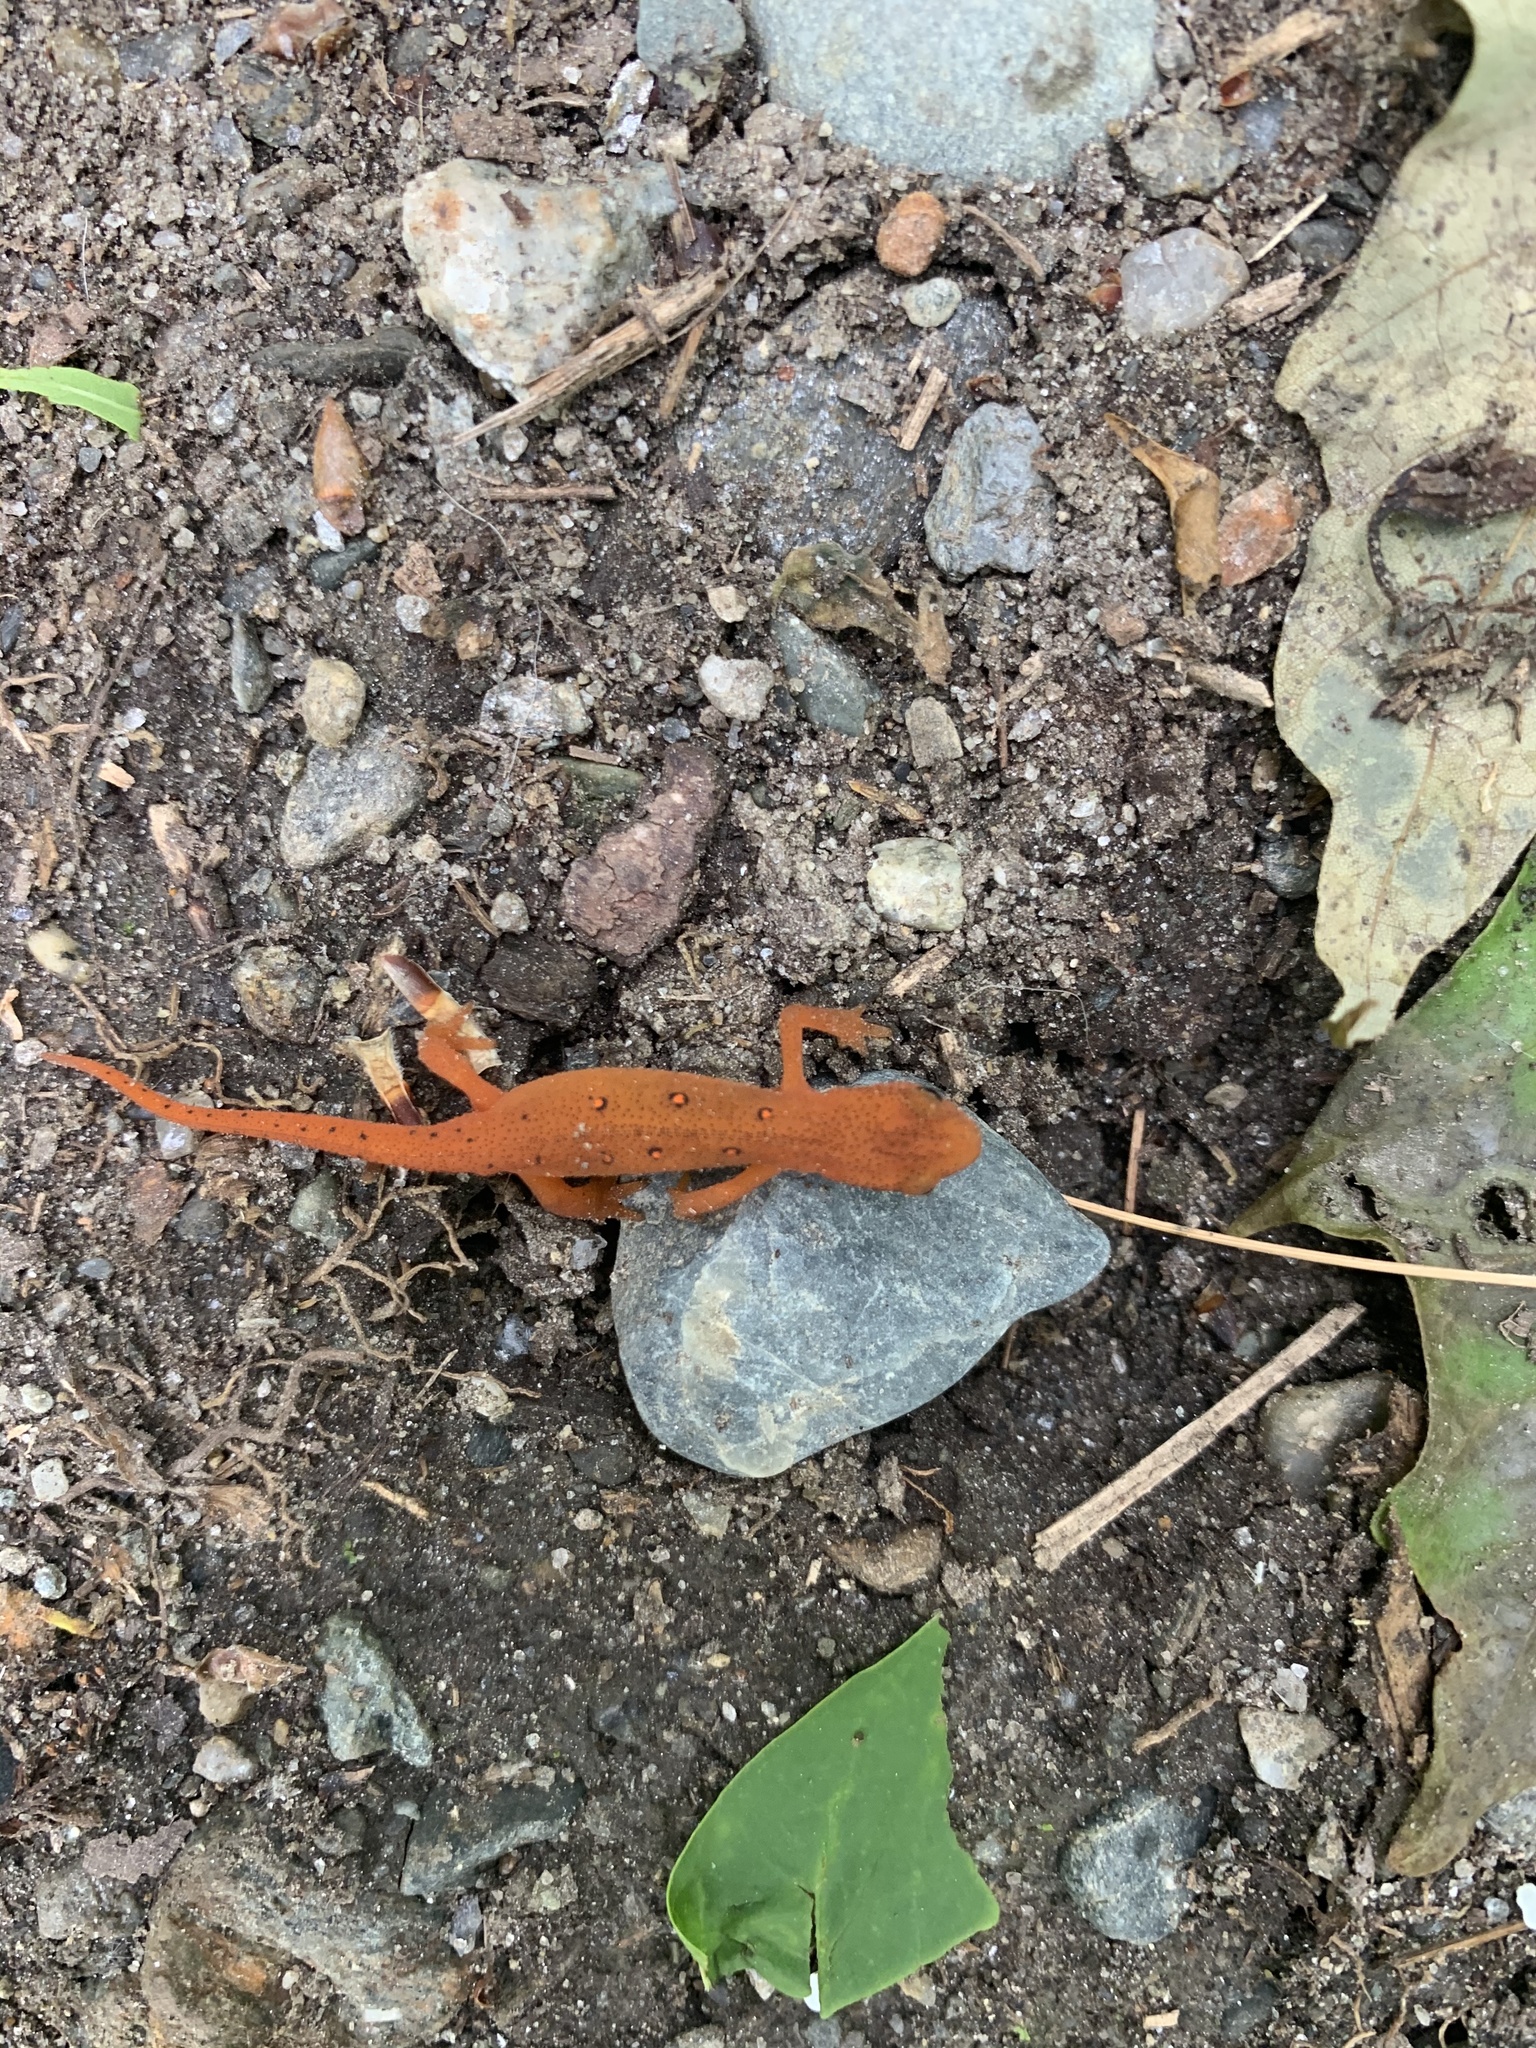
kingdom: Animalia
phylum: Chordata
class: Amphibia
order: Caudata
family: Salamandridae
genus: Notophthalmus
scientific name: Notophthalmus viridescens
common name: Eastern newt
